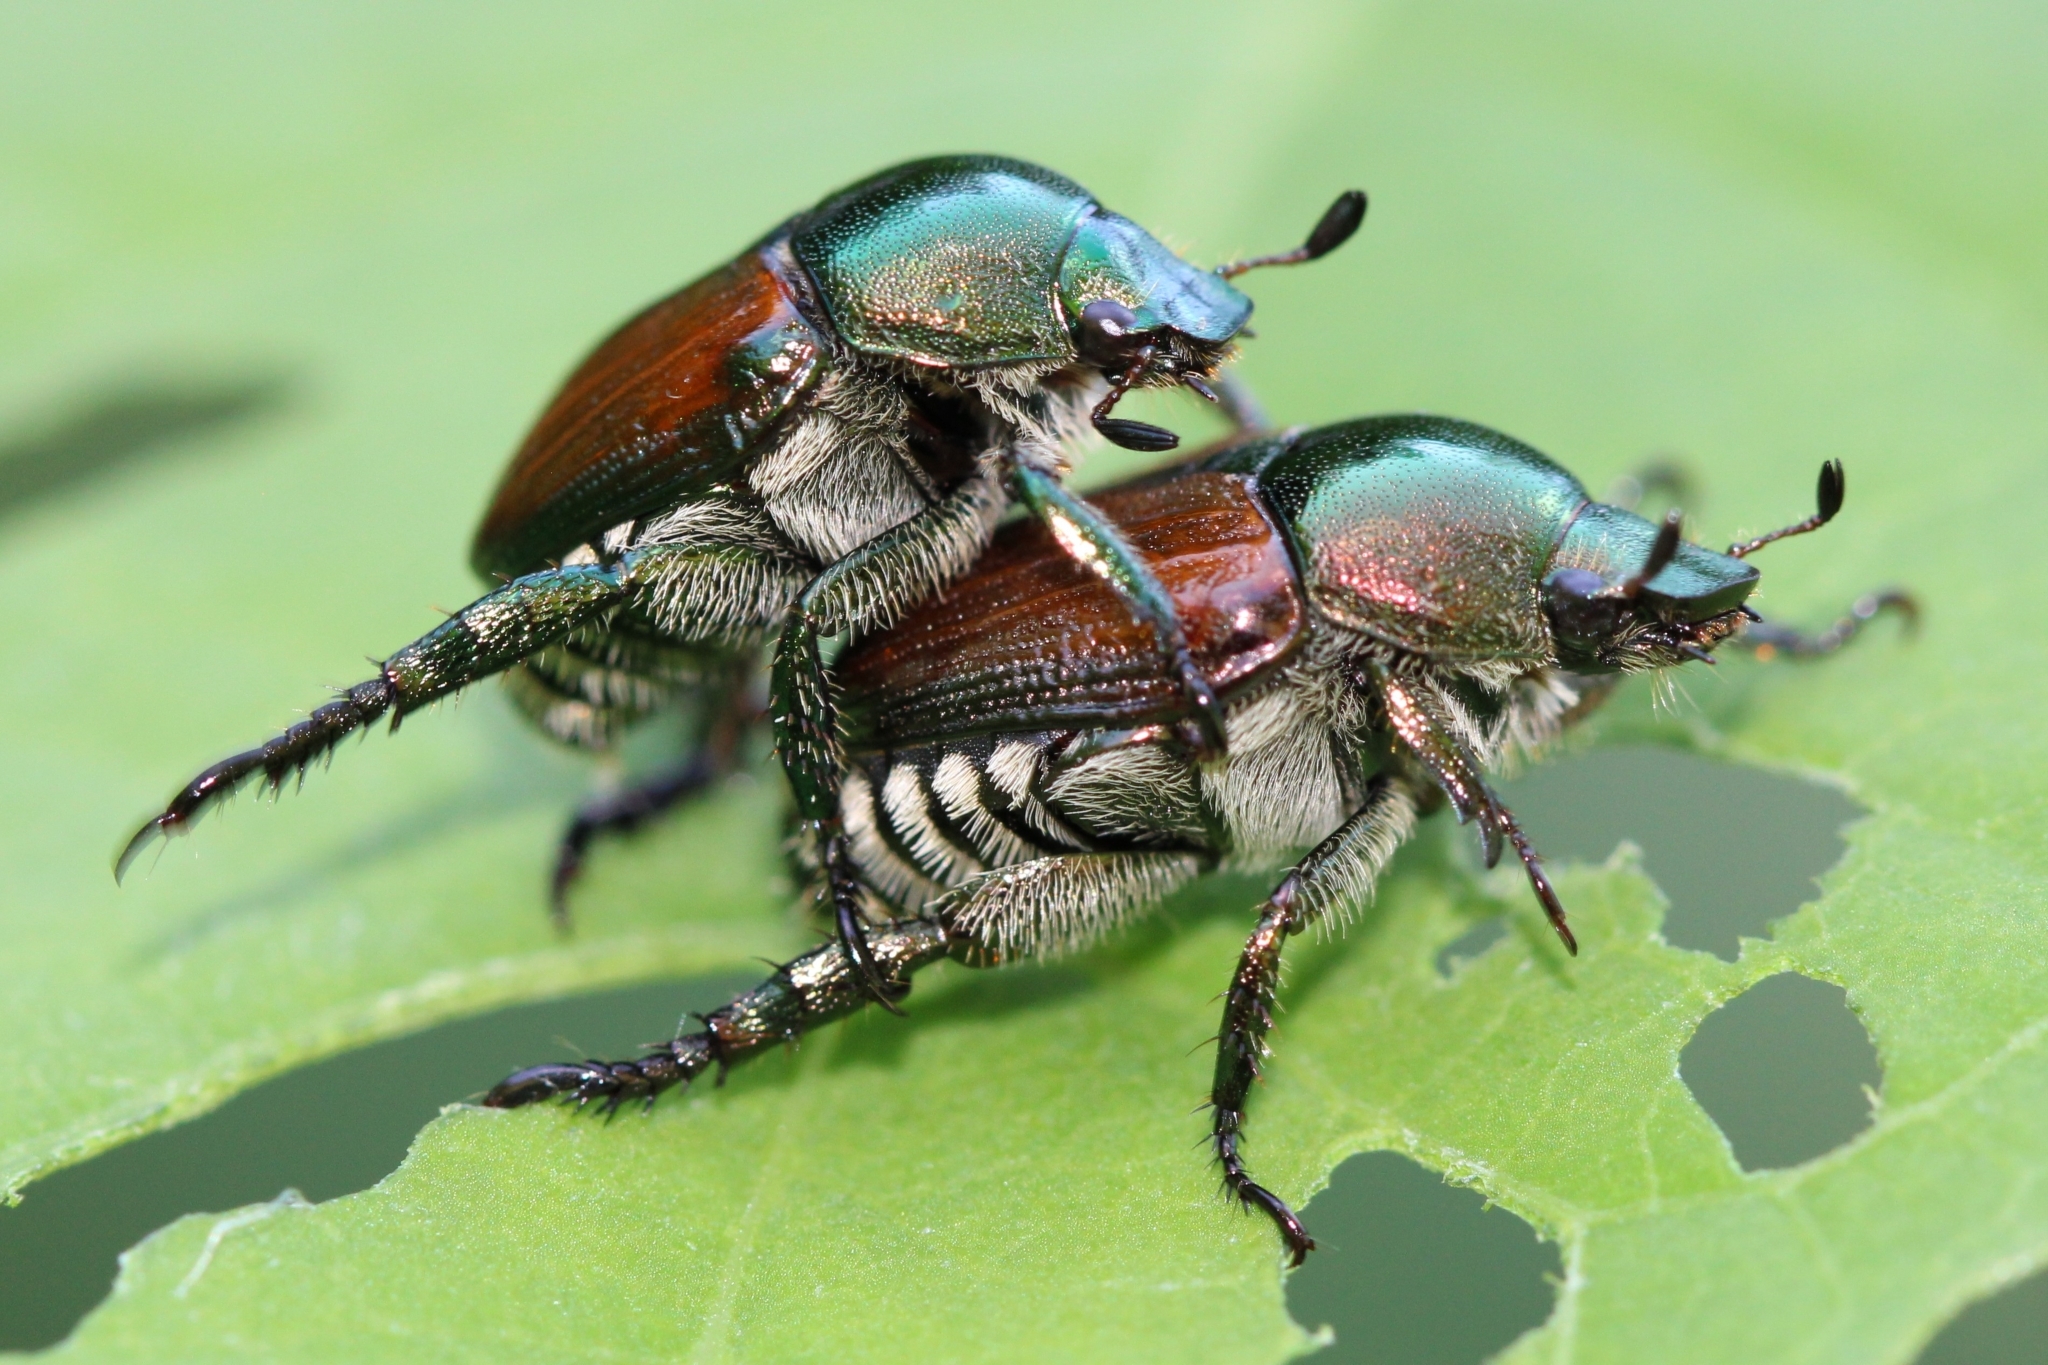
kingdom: Animalia
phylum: Arthropoda
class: Insecta
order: Coleoptera
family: Scarabaeidae
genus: Popillia
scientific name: Popillia japonica
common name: Japanese beetle
